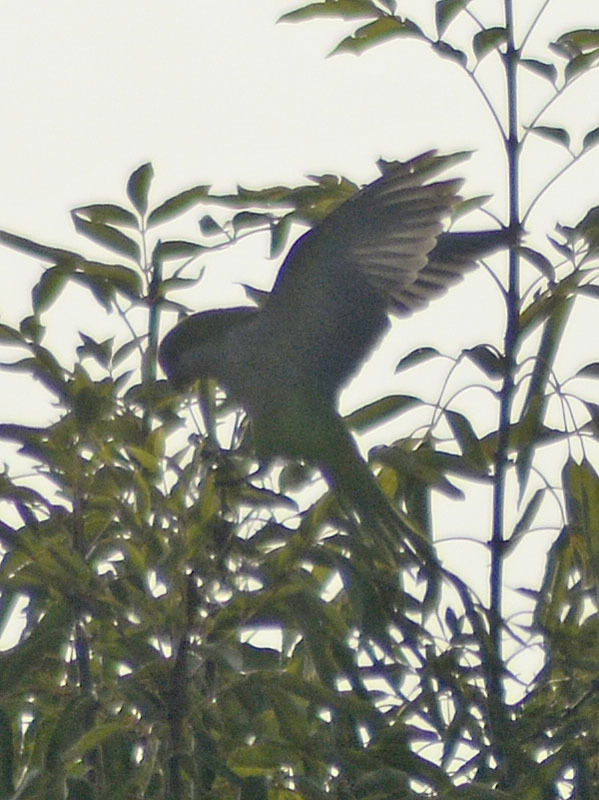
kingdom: Animalia
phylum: Chordata
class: Aves
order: Psittaciformes
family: Psittacidae
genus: Myiopsitta
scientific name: Myiopsitta monachus
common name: Monk parakeet
